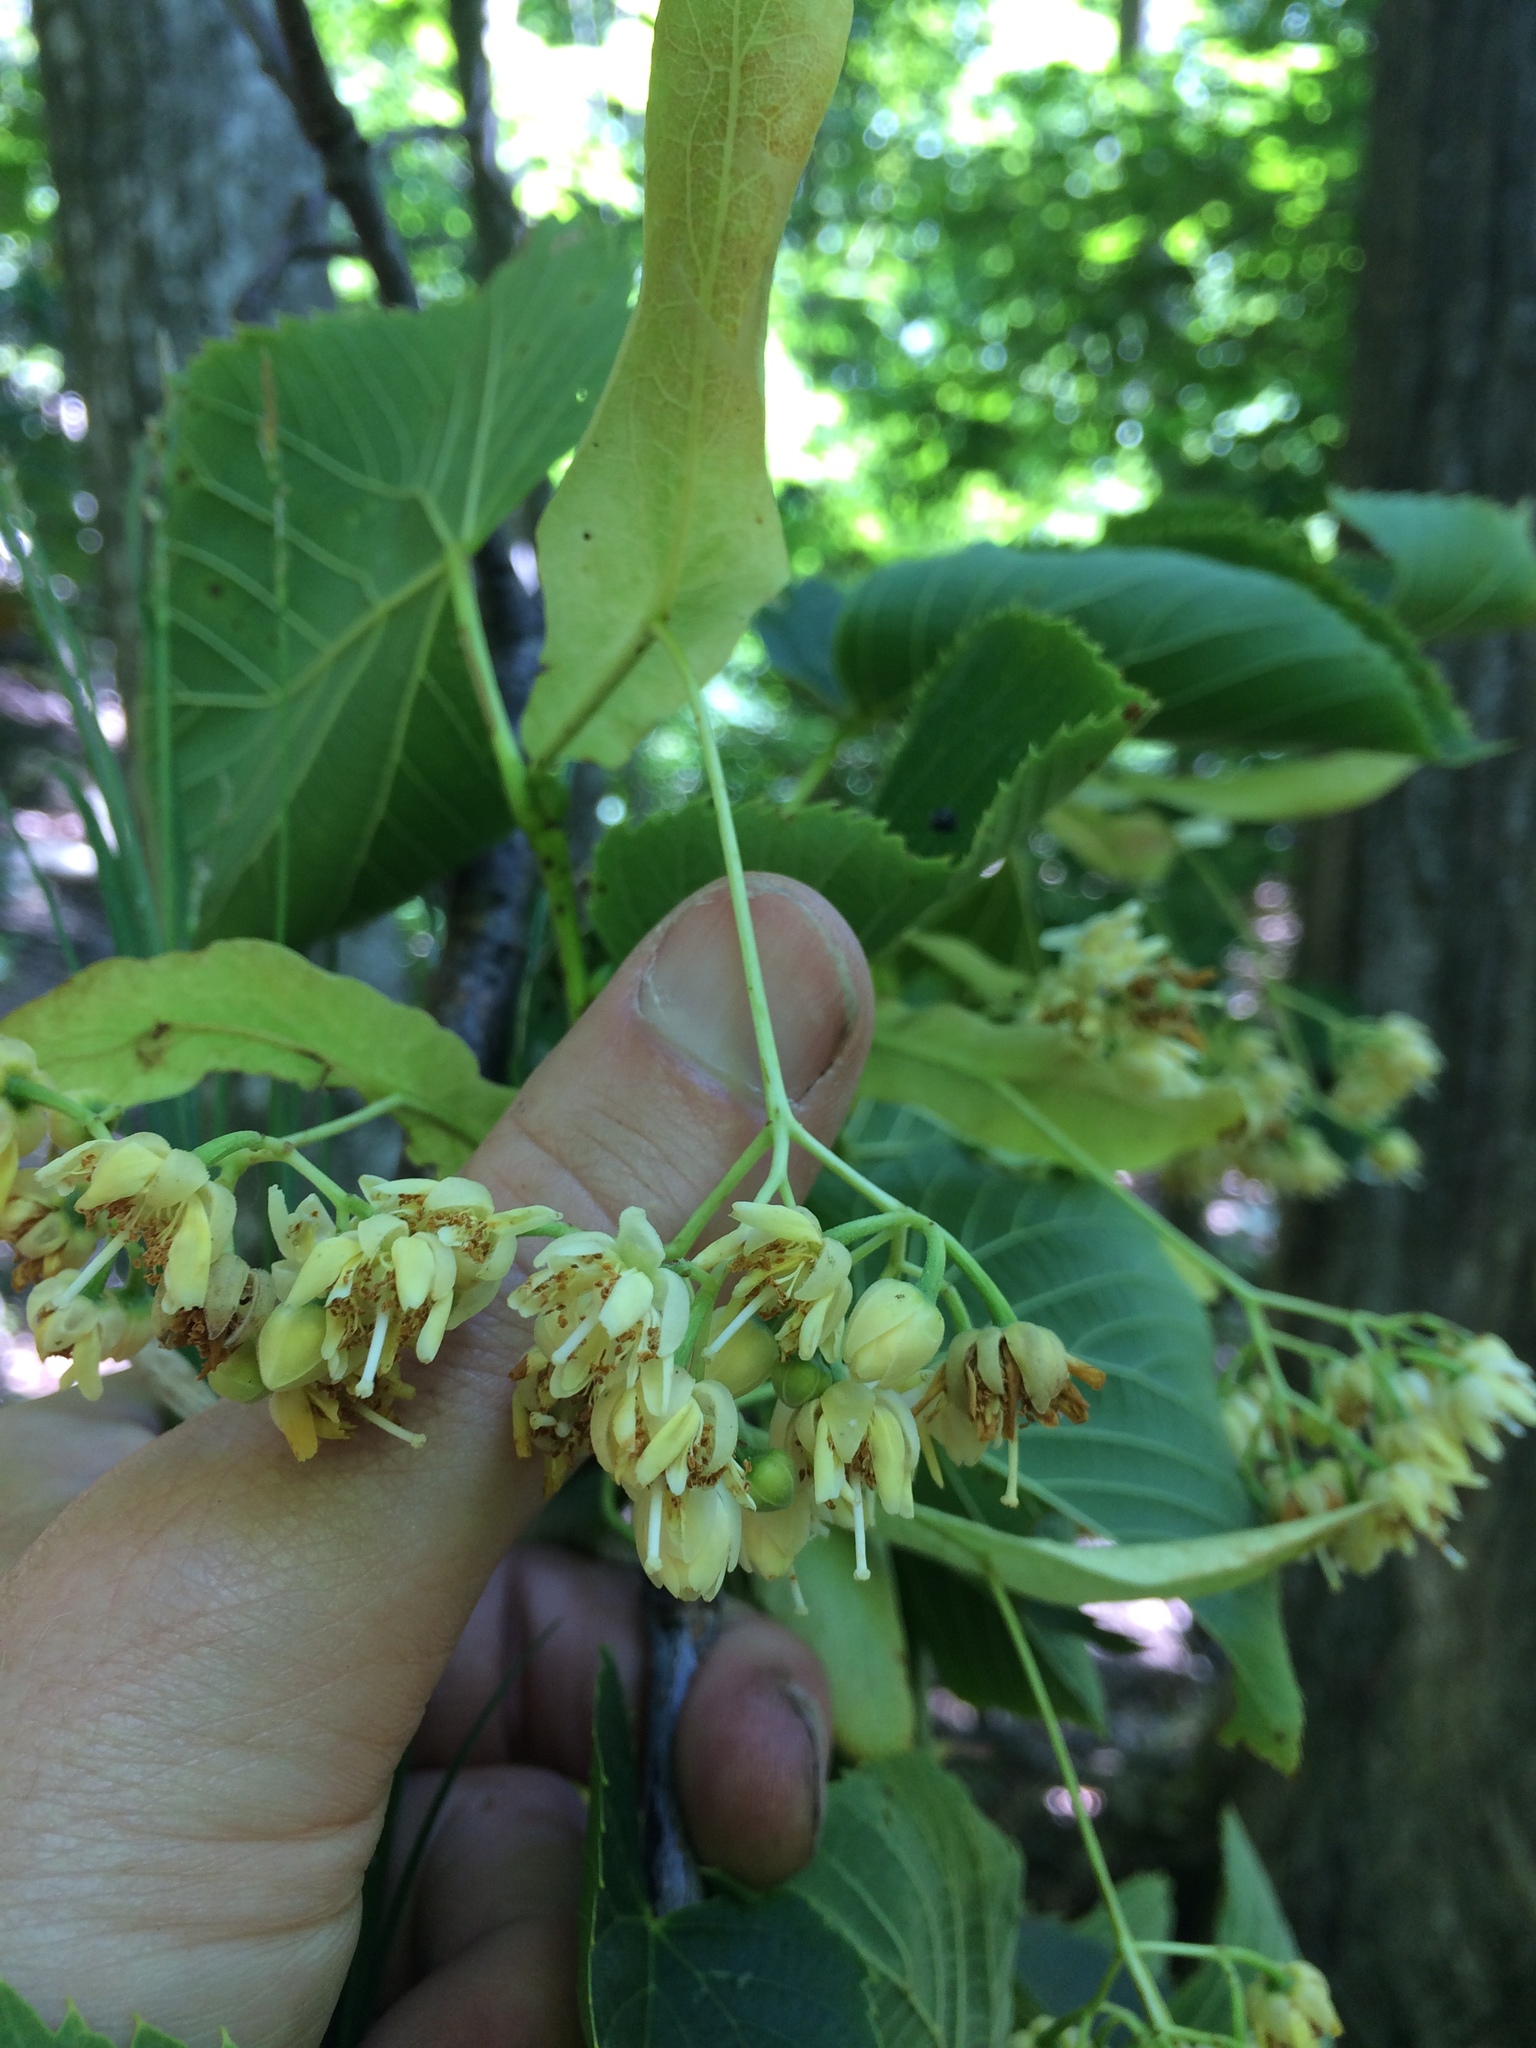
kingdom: Plantae
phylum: Tracheophyta
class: Magnoliopsida
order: Malvales
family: Malvaceae
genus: Tilia
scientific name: Tilia americana
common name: Basswood
